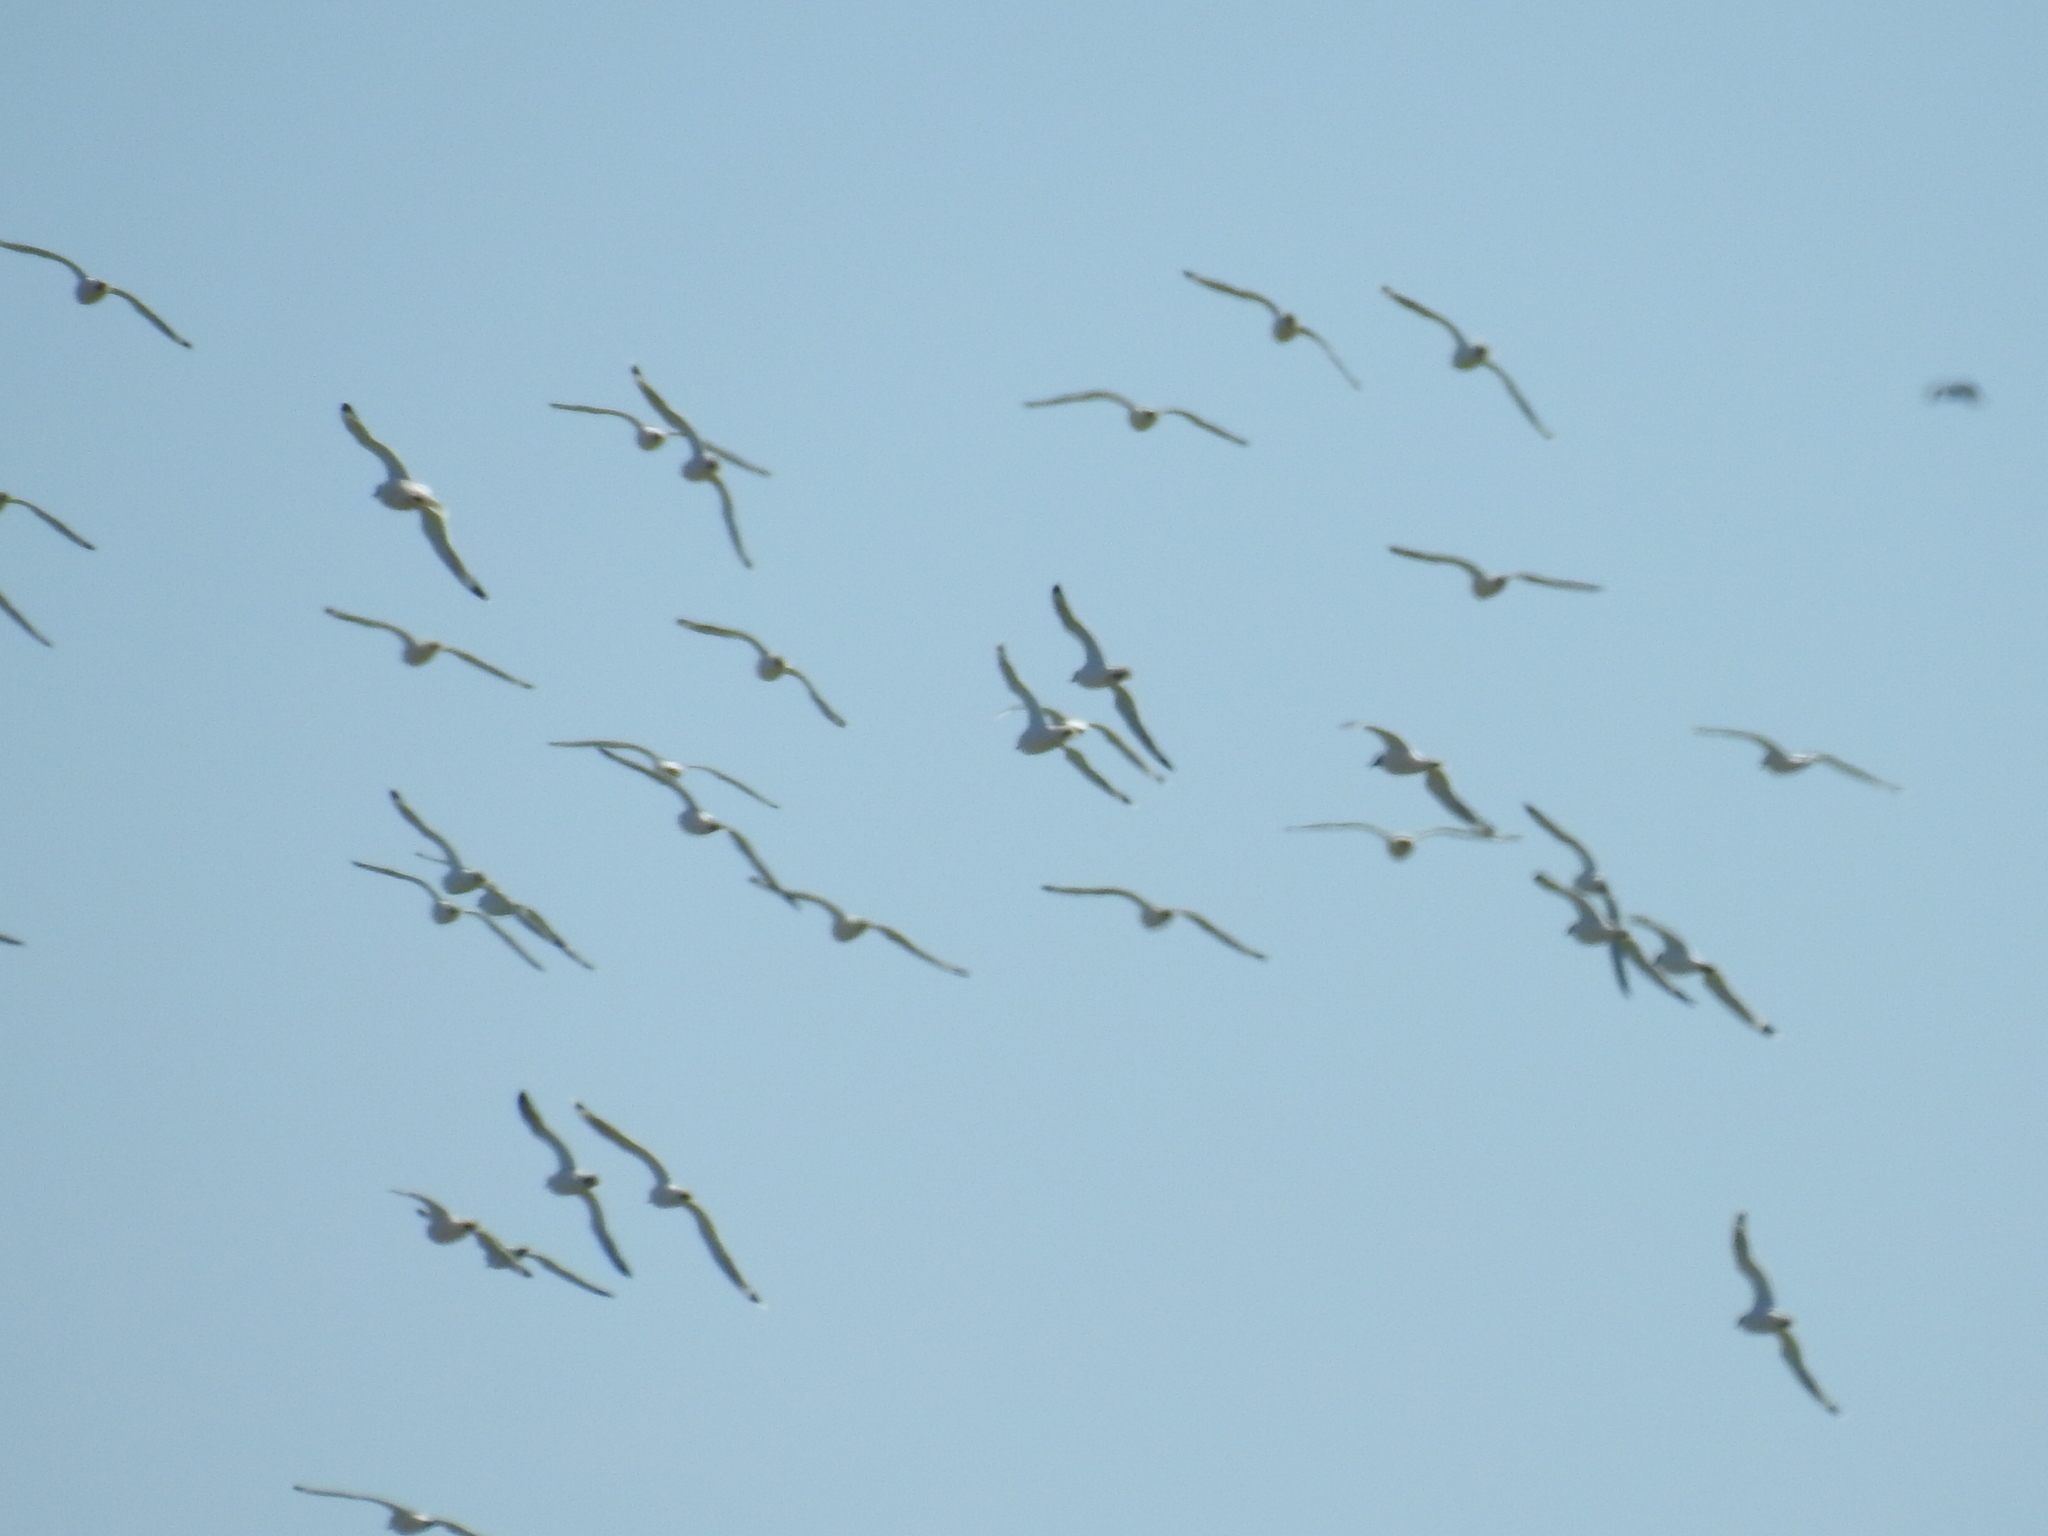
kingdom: Animalia
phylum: Chordata
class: Aves
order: Charadriiformes
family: Laridae
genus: Leucophaeus
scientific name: Leucophaeus pipixcan
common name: Franklin's gull
